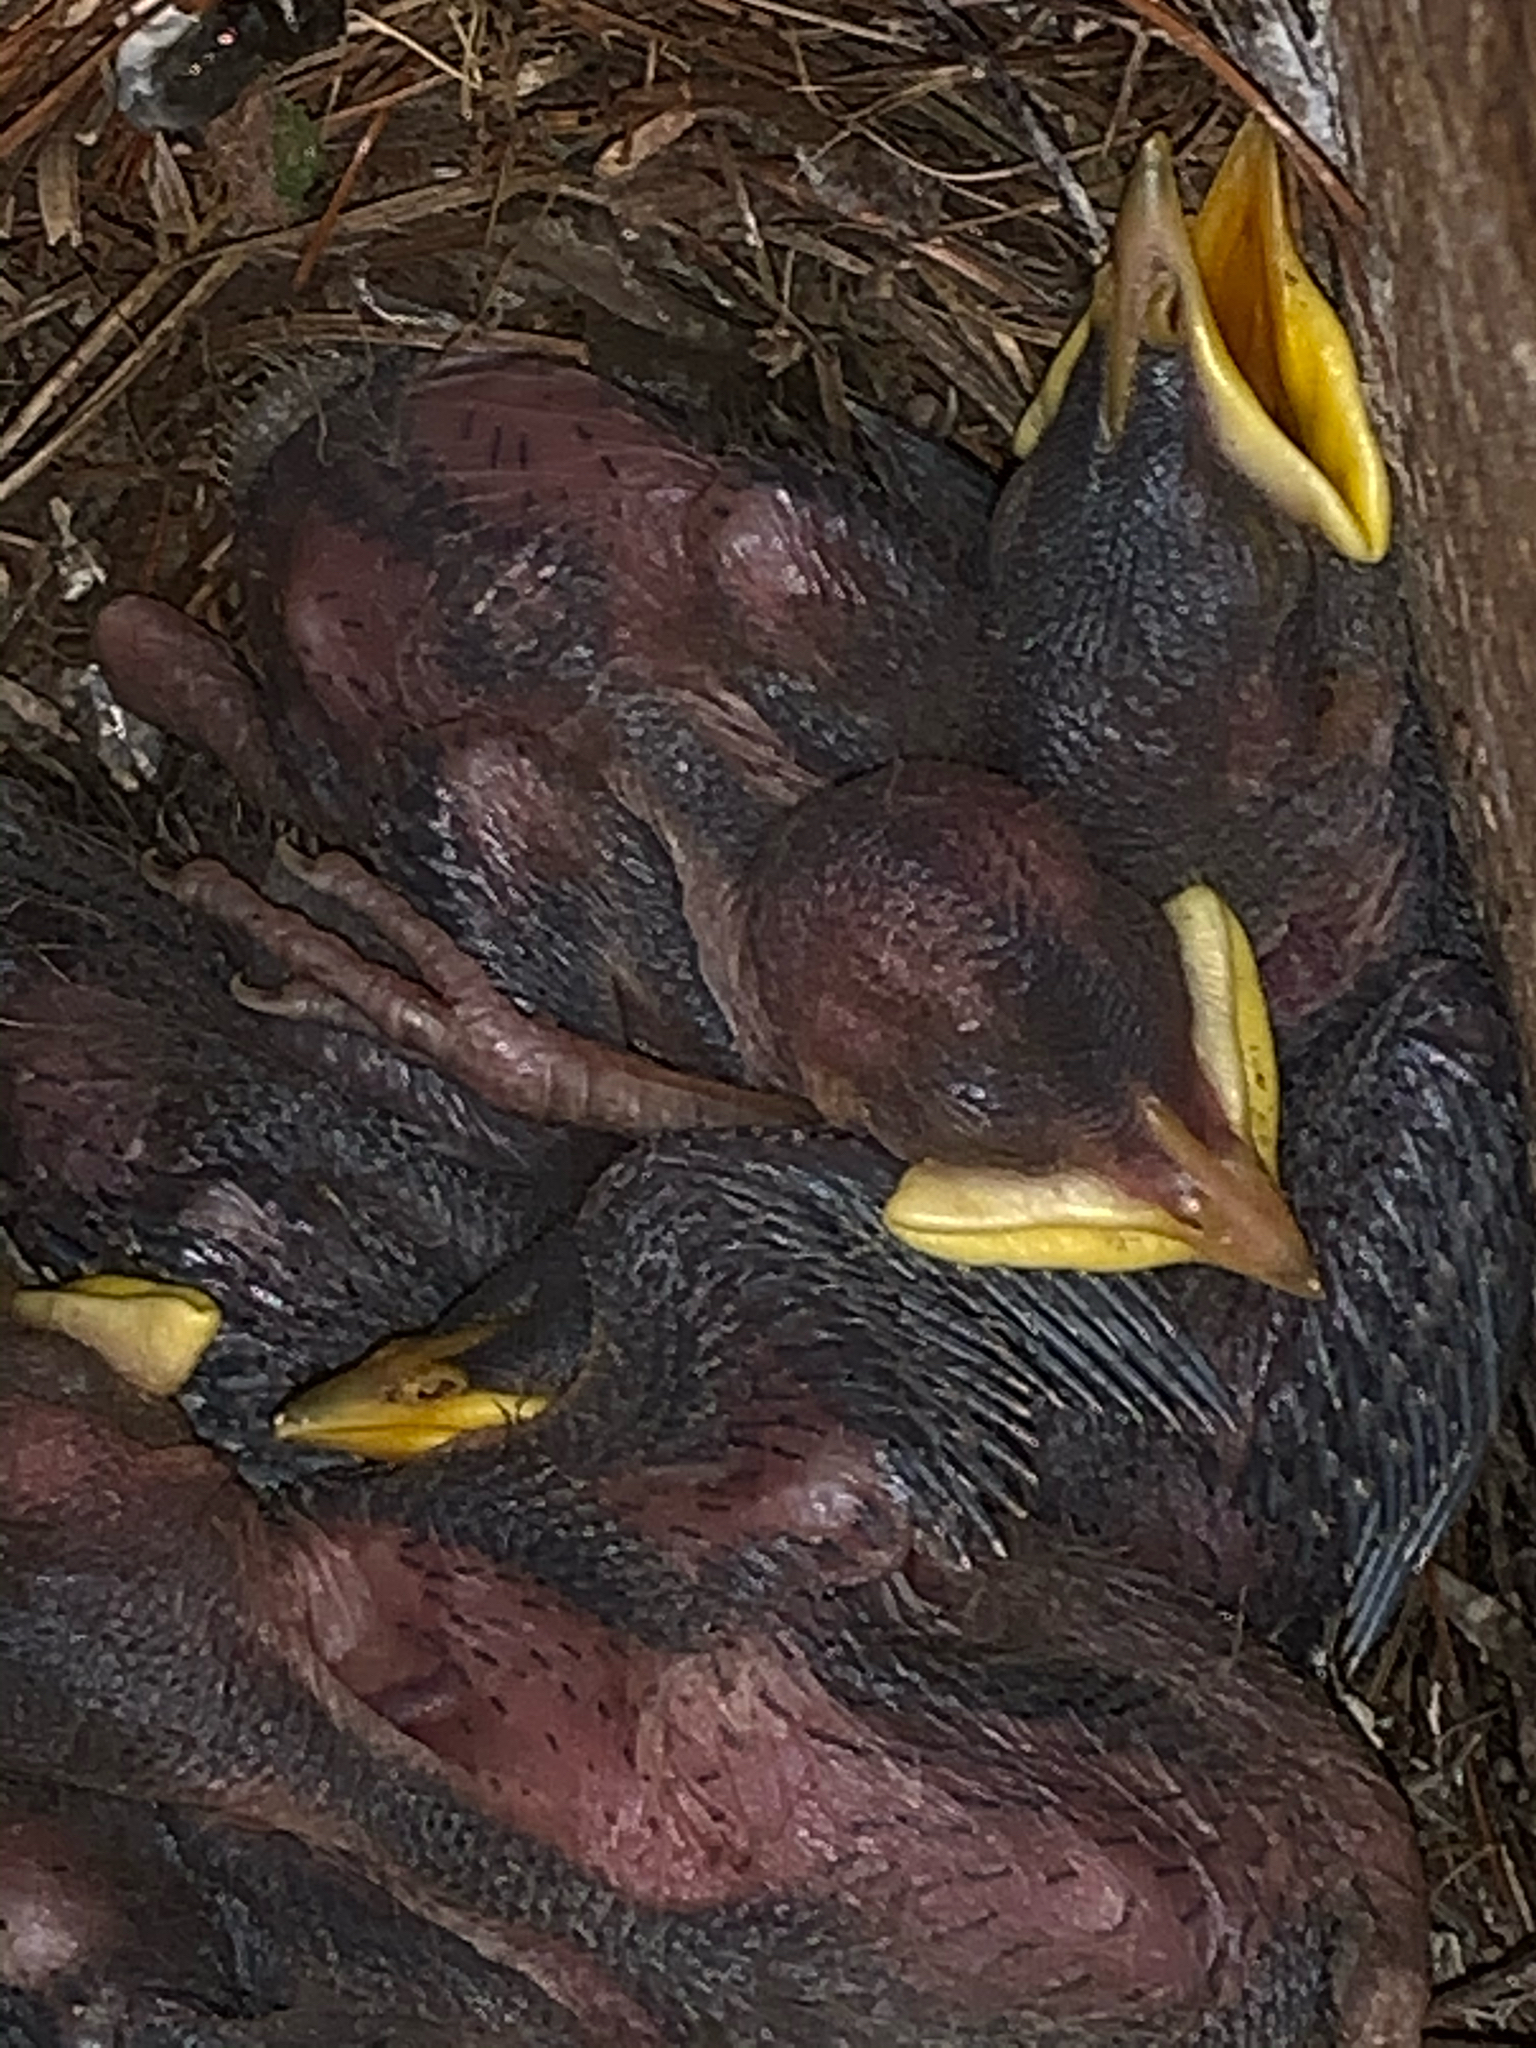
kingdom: Animalia
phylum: Chordata
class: Aves
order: Passeriformes
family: Sturnidae
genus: Sturnus
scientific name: Sturnus vulgaris
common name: Common starling
